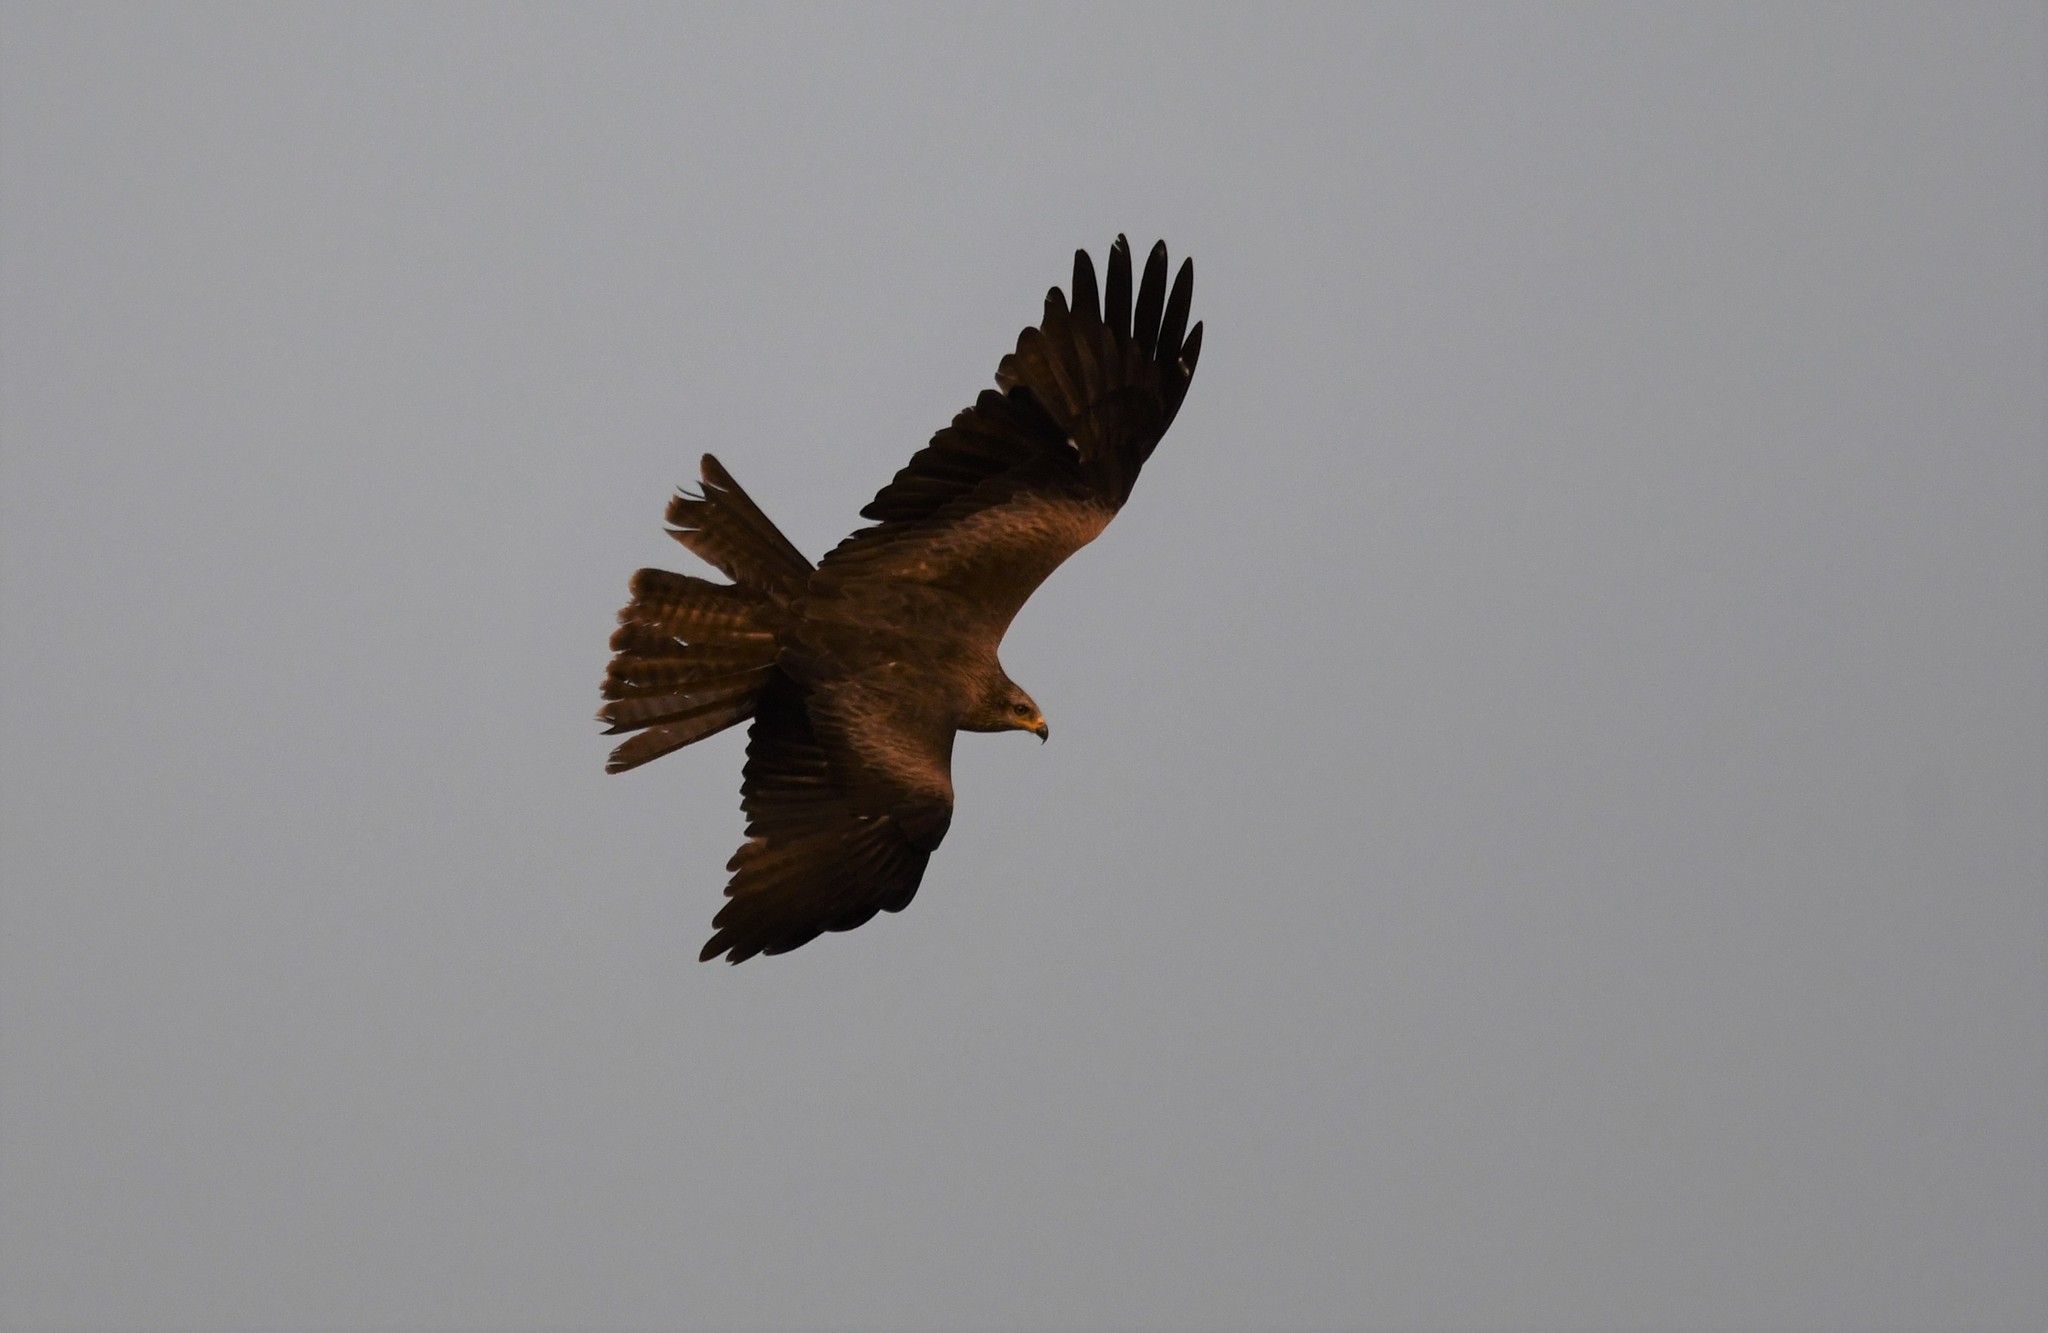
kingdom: Animalia
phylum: Chordata
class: Aves
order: Accipitriformes
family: Accipitridae
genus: Milvus
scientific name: Milvus migrans
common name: Black kite
